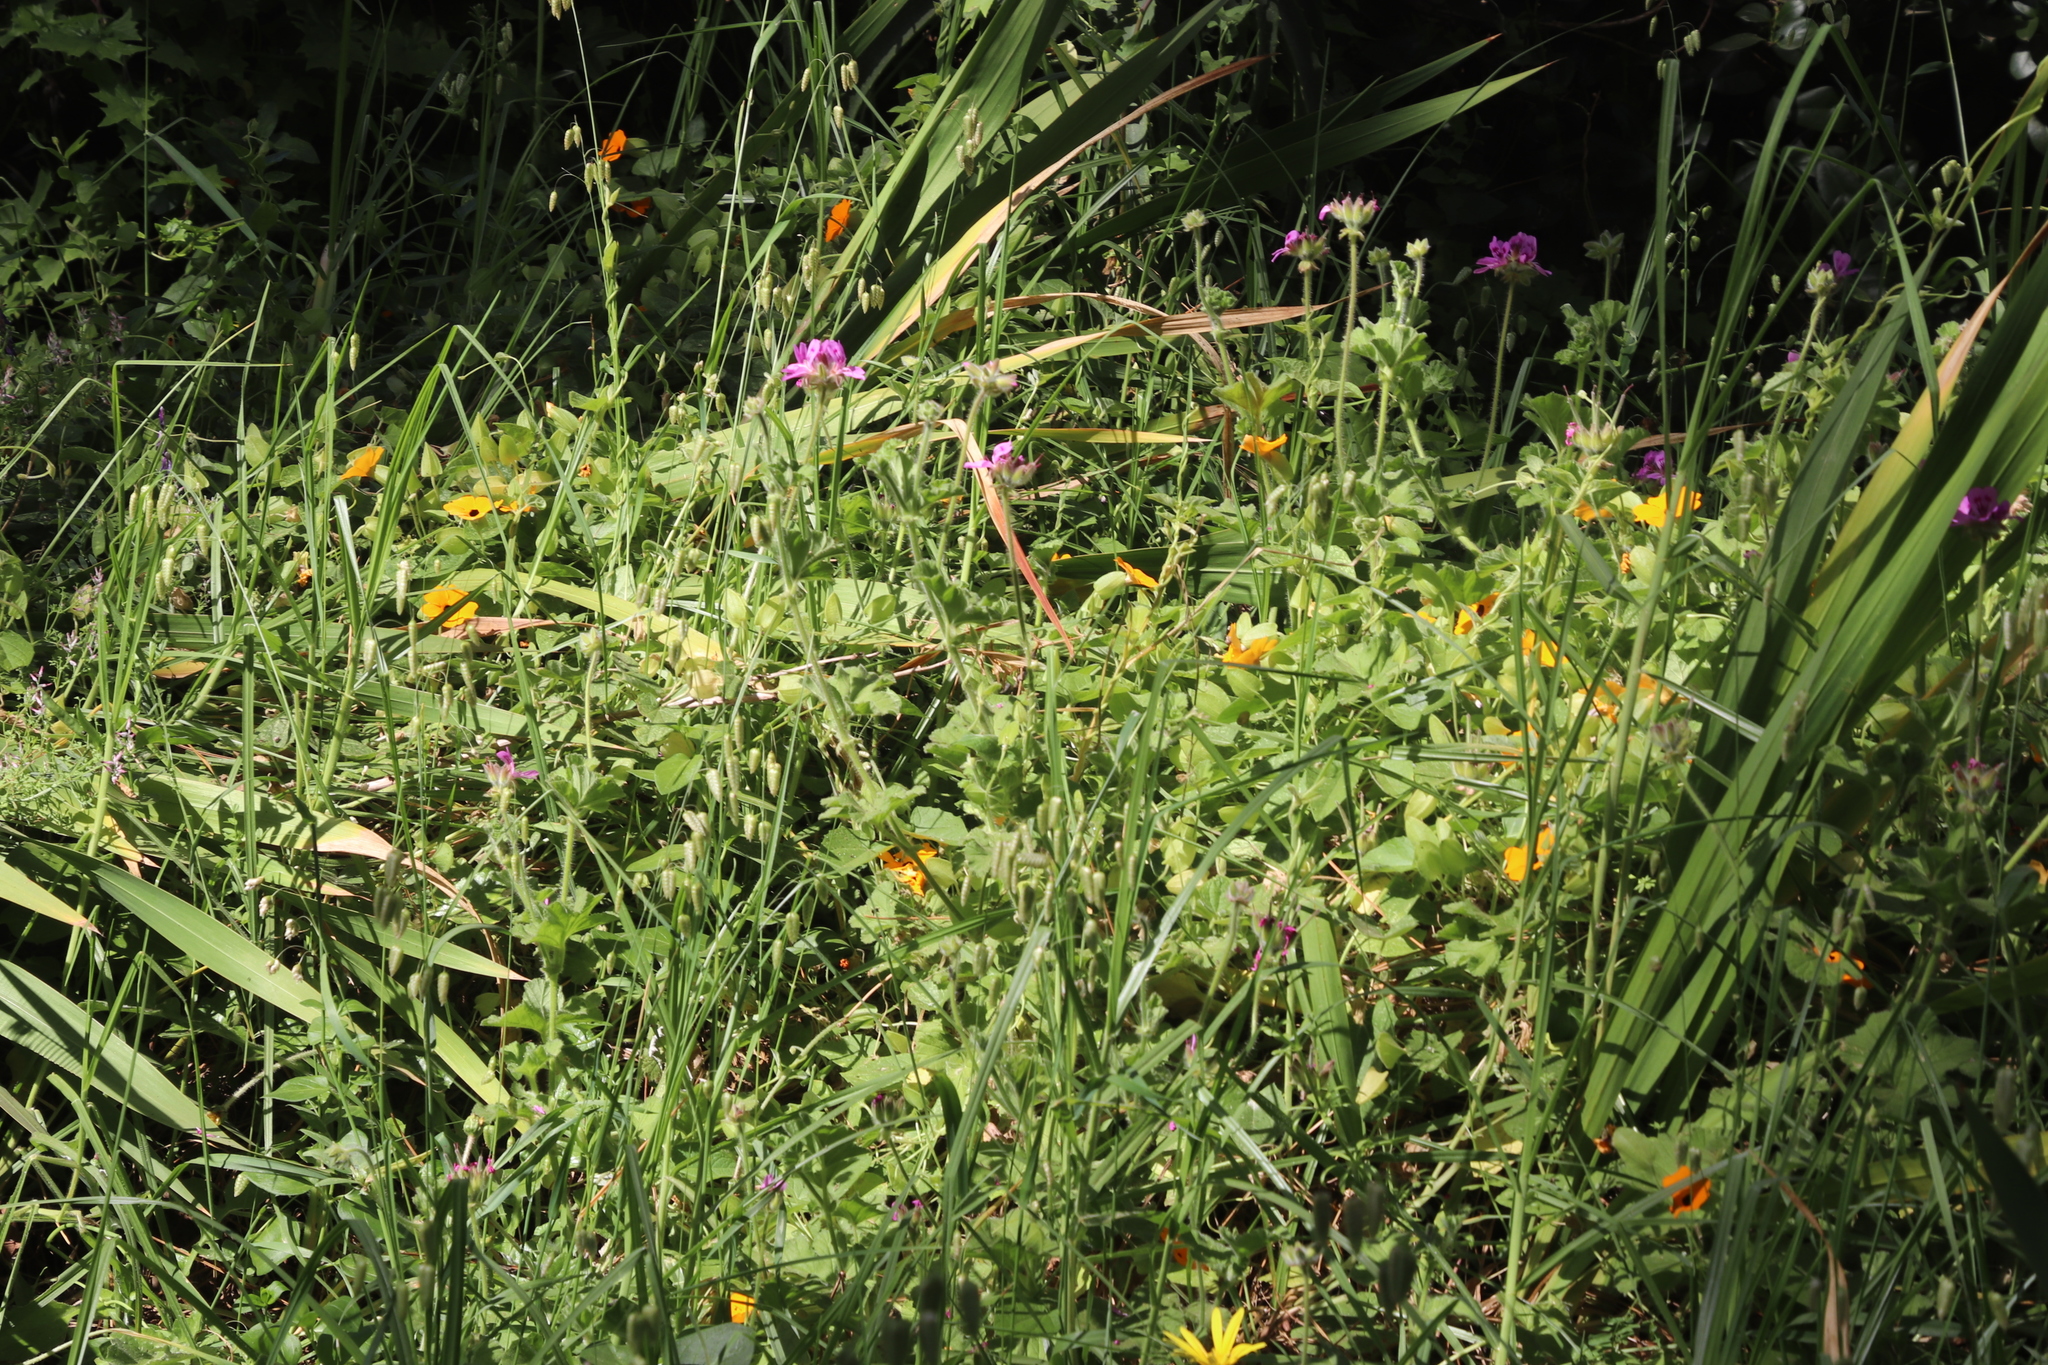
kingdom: Plantae
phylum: Tracheophyta
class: Magnoliopsida
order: Geraniales
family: Geraniaceae
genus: Pelargonium
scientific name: Pelargonium capitatum
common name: Rose scented geranium
